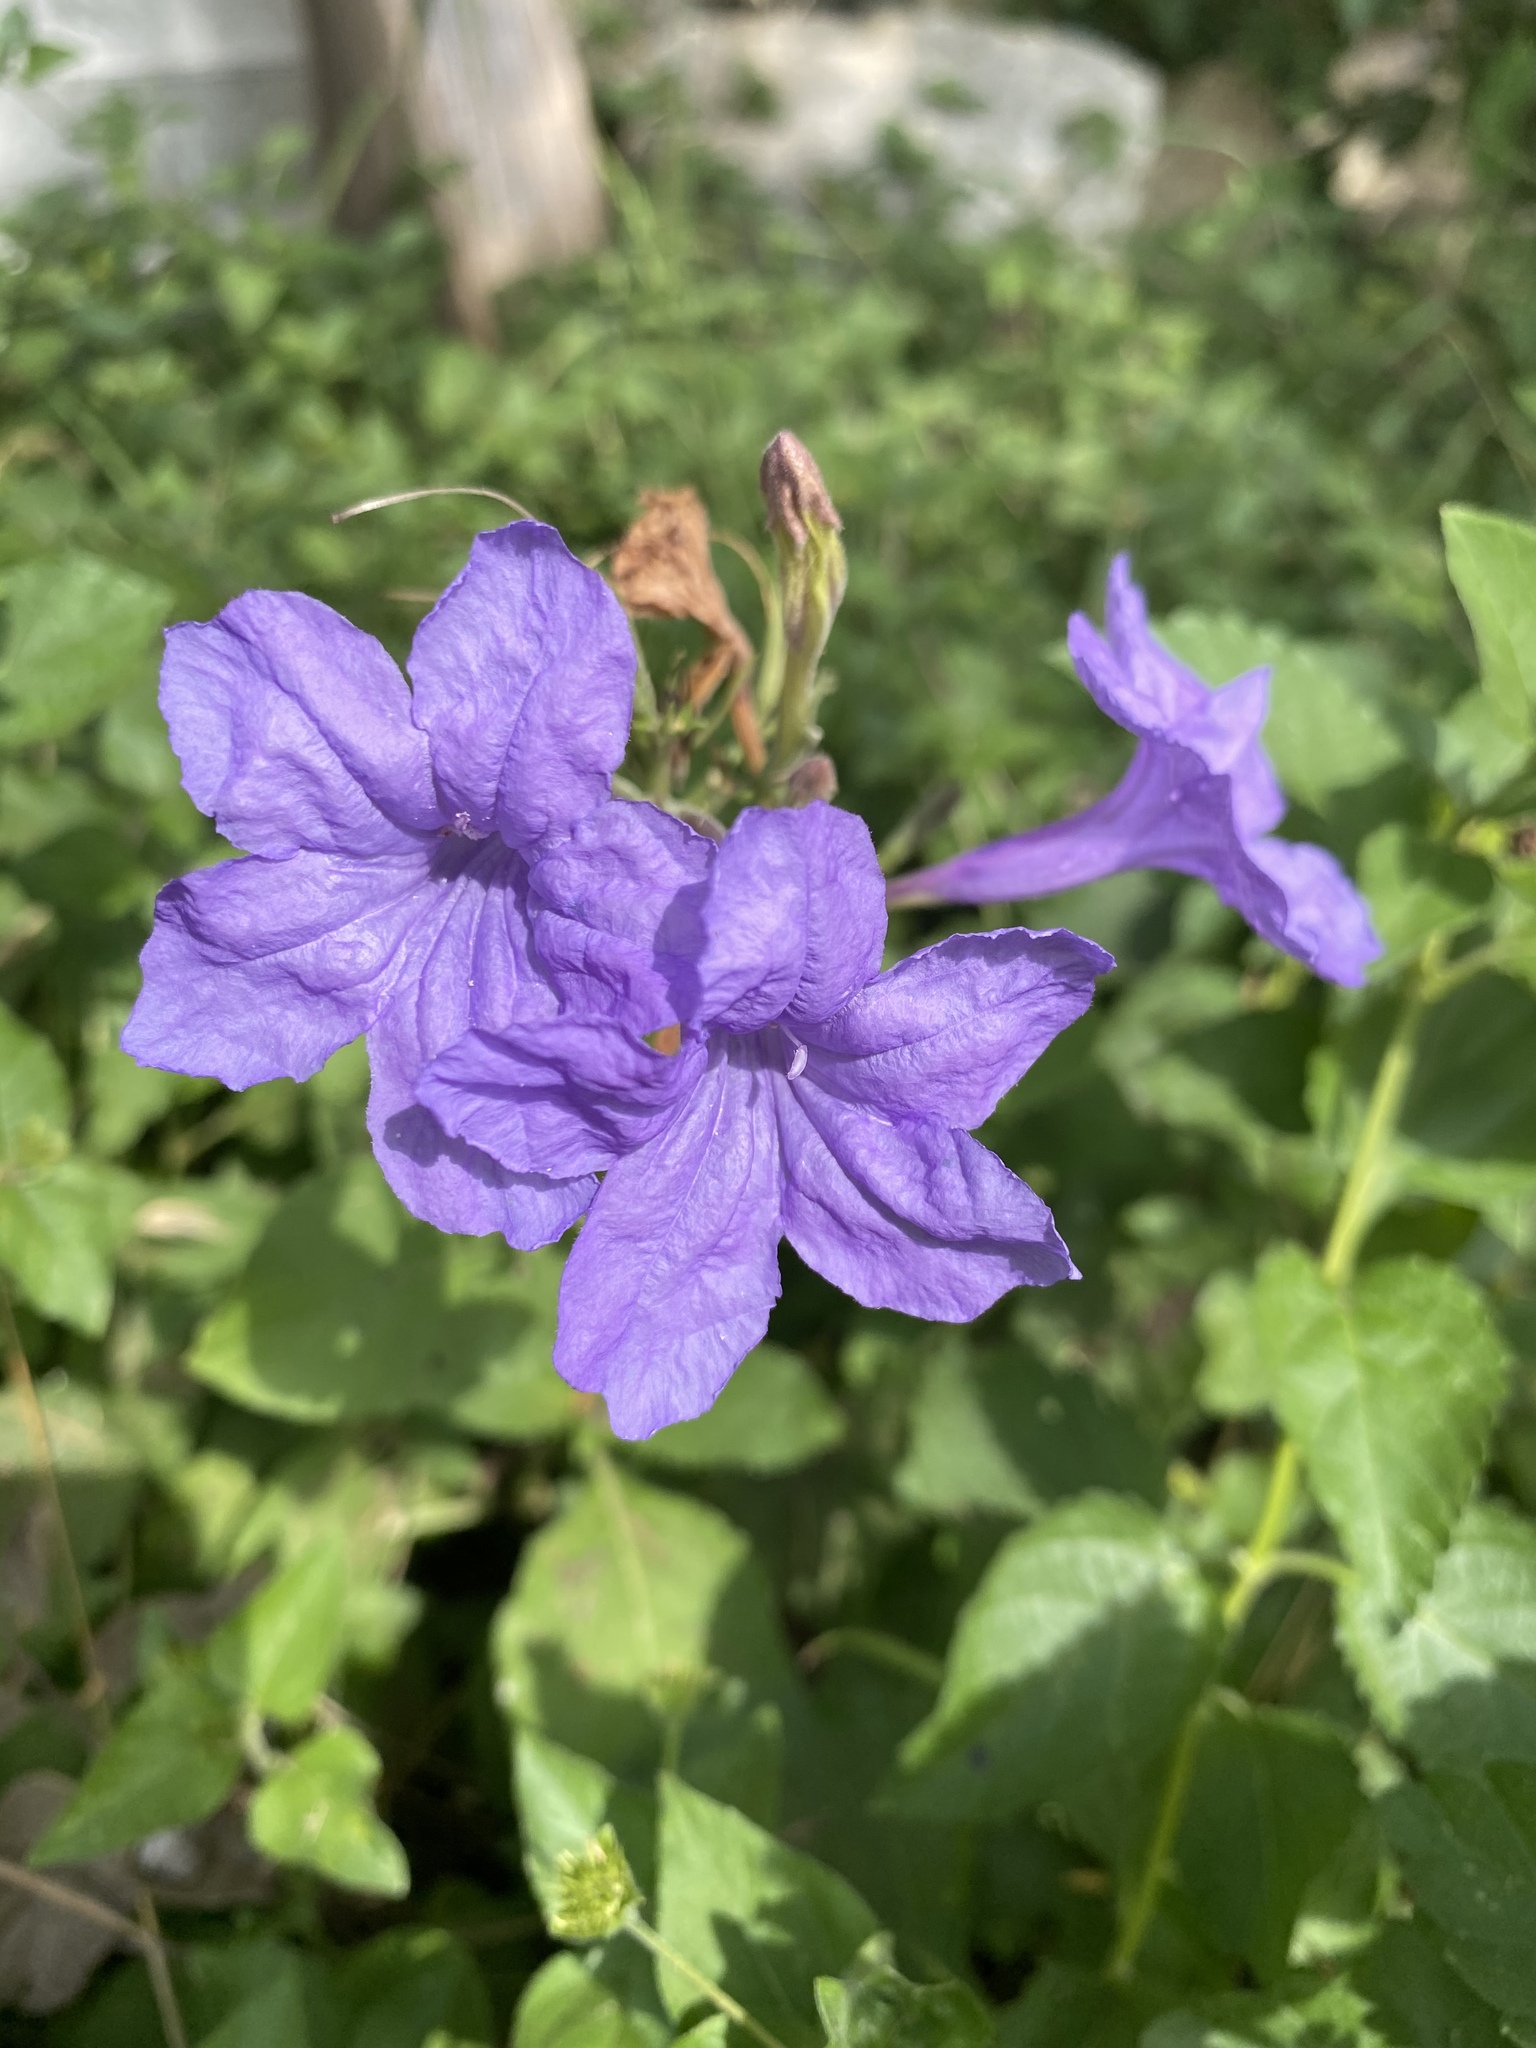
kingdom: Plantae
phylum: Tracheophyta
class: Magnoliopsida
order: Lamiales
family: Acanthaceae
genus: Ruellia
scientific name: Ruellia ciliatiflora
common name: Hairyflower wild petunia
